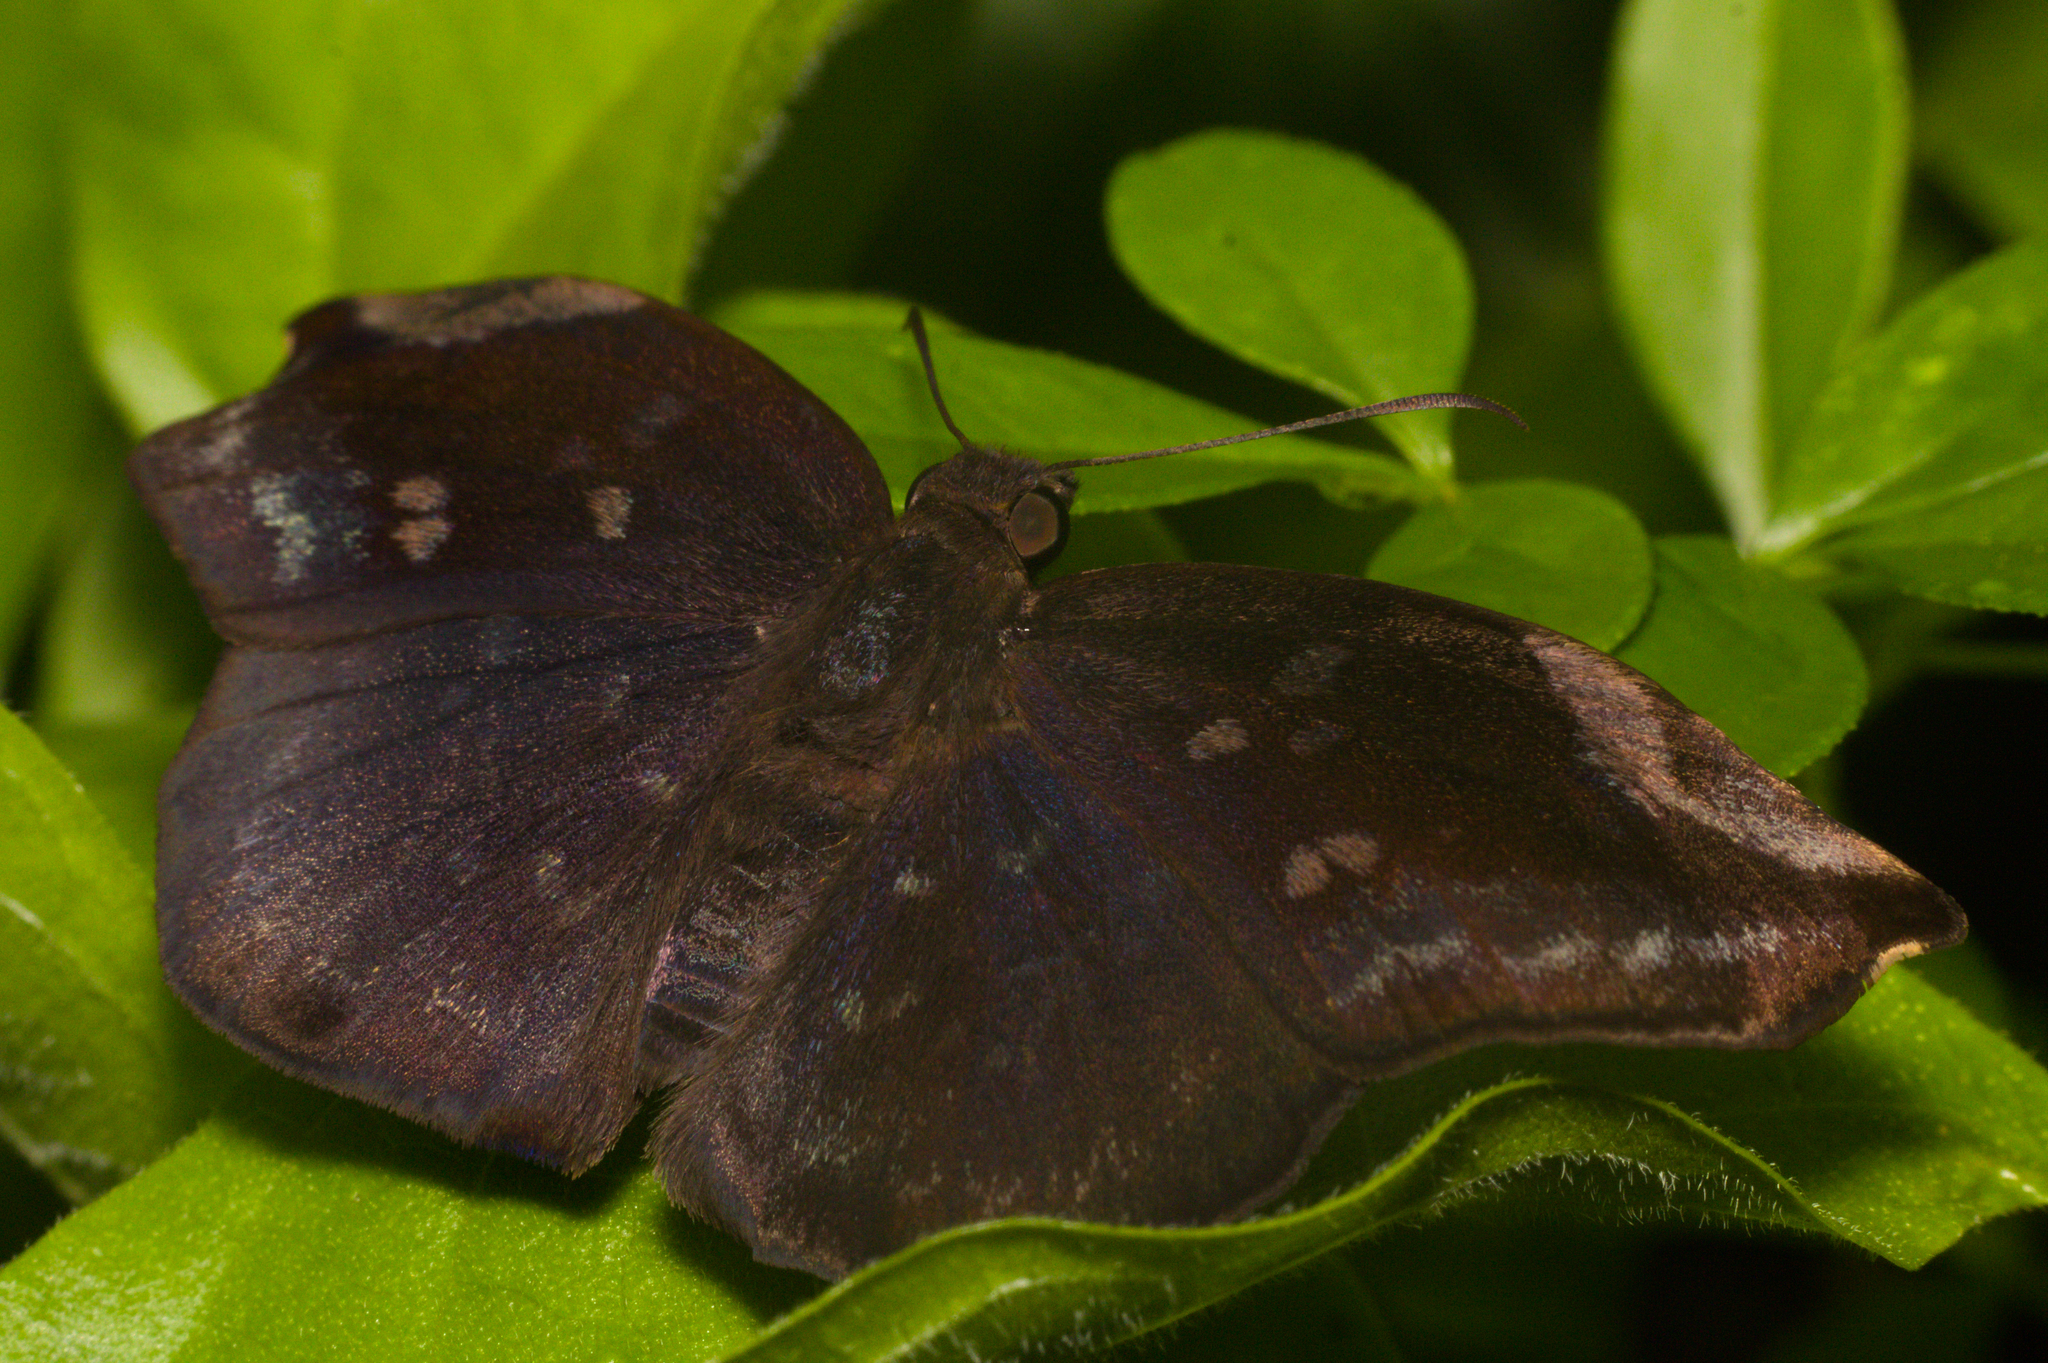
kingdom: Animalia
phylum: Arthropoda
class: Insecta
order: Lepidoptera
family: Hesperiidae
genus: Achlyodes
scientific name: Achlyodes thraso
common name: Sickle-winged skipper
